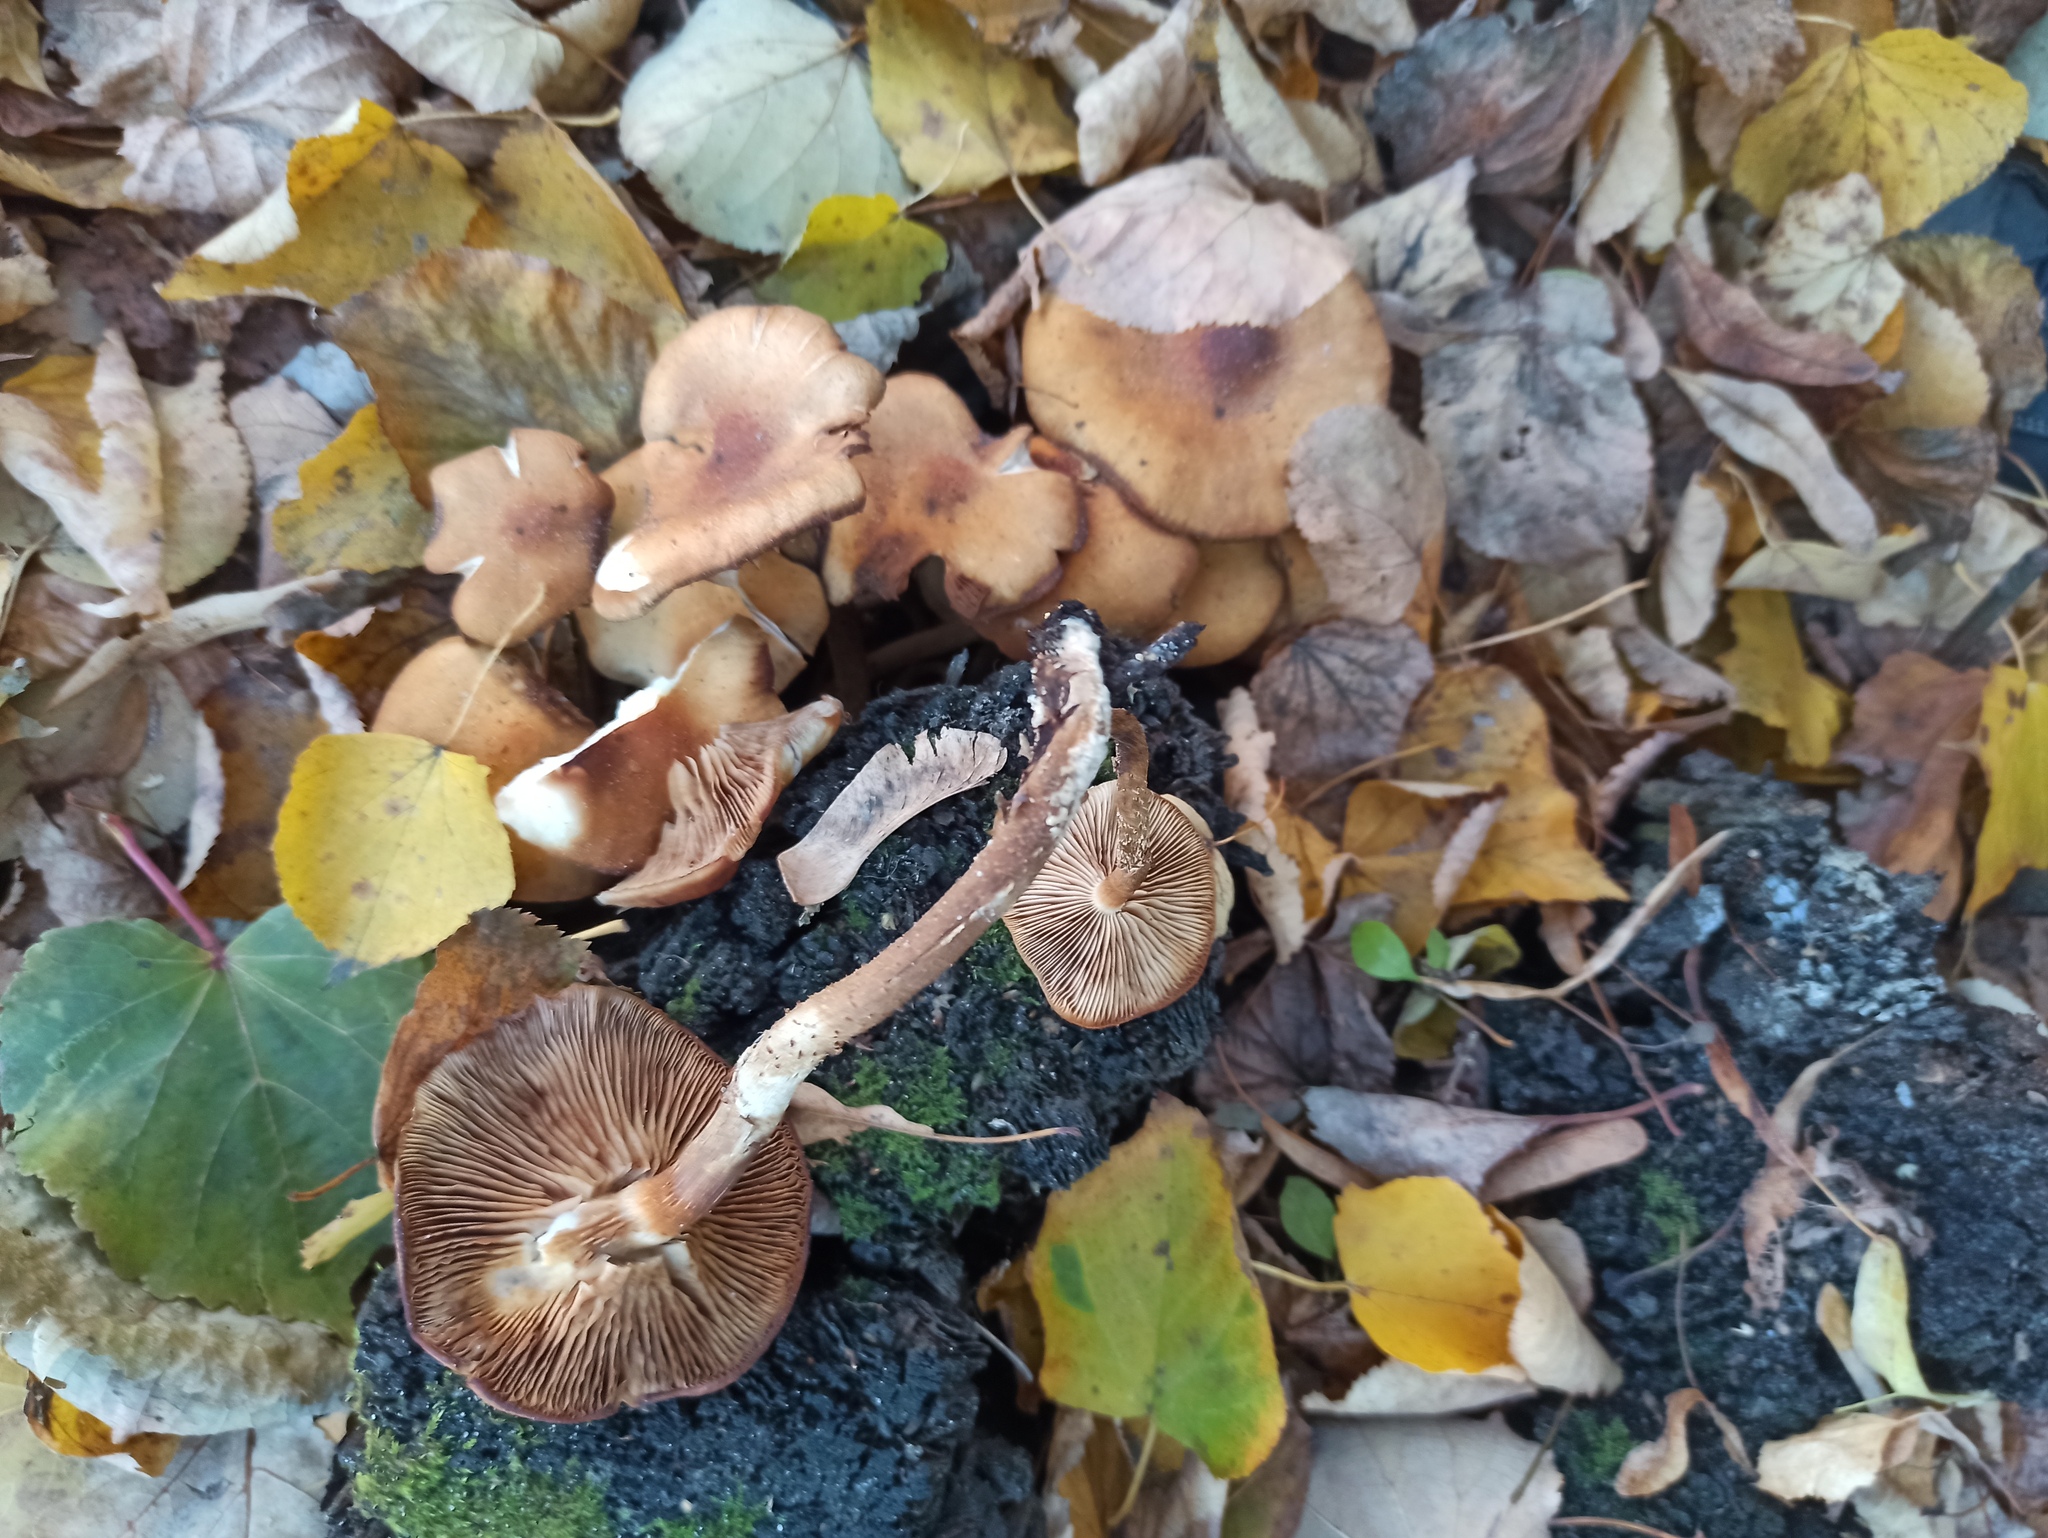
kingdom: Fungi
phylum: Basidiomycota
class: Agaricomycetes
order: Agaricales
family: Strophariaceae
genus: Kuehneromyces
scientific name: Kuehneromyces mutabilis
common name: Sheathed woodtuft
